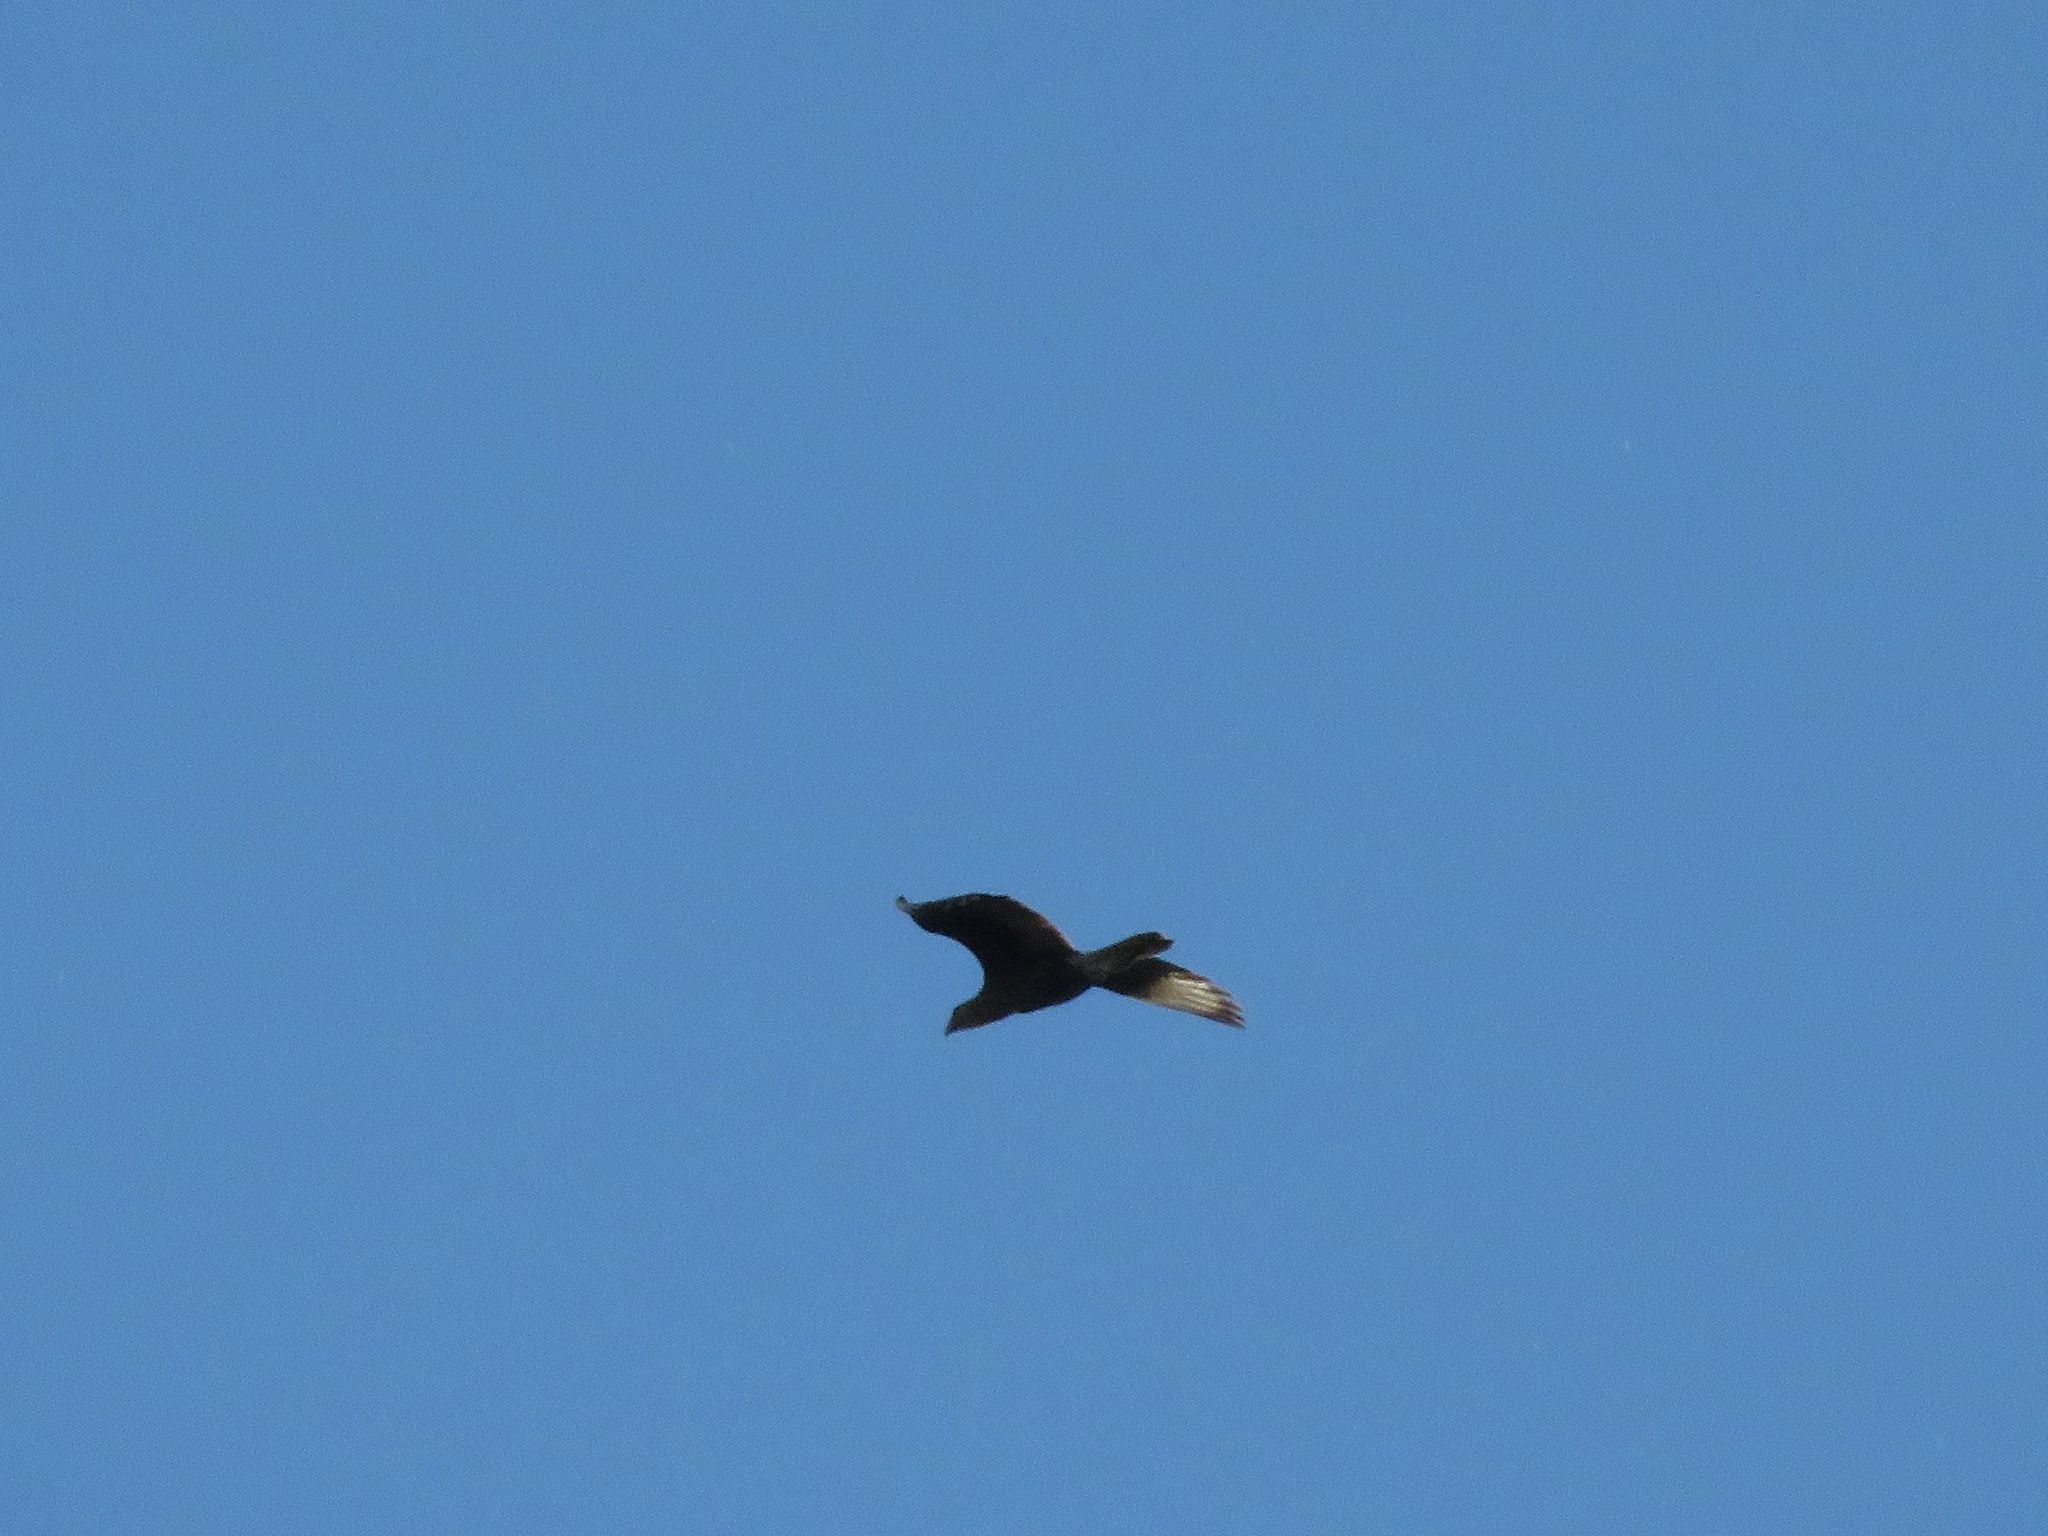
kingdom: Animalia
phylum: Chordata
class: Aves
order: Falconiformes
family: Falconidae
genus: Caracara
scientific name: Caracara plancus
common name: Southern caracara
